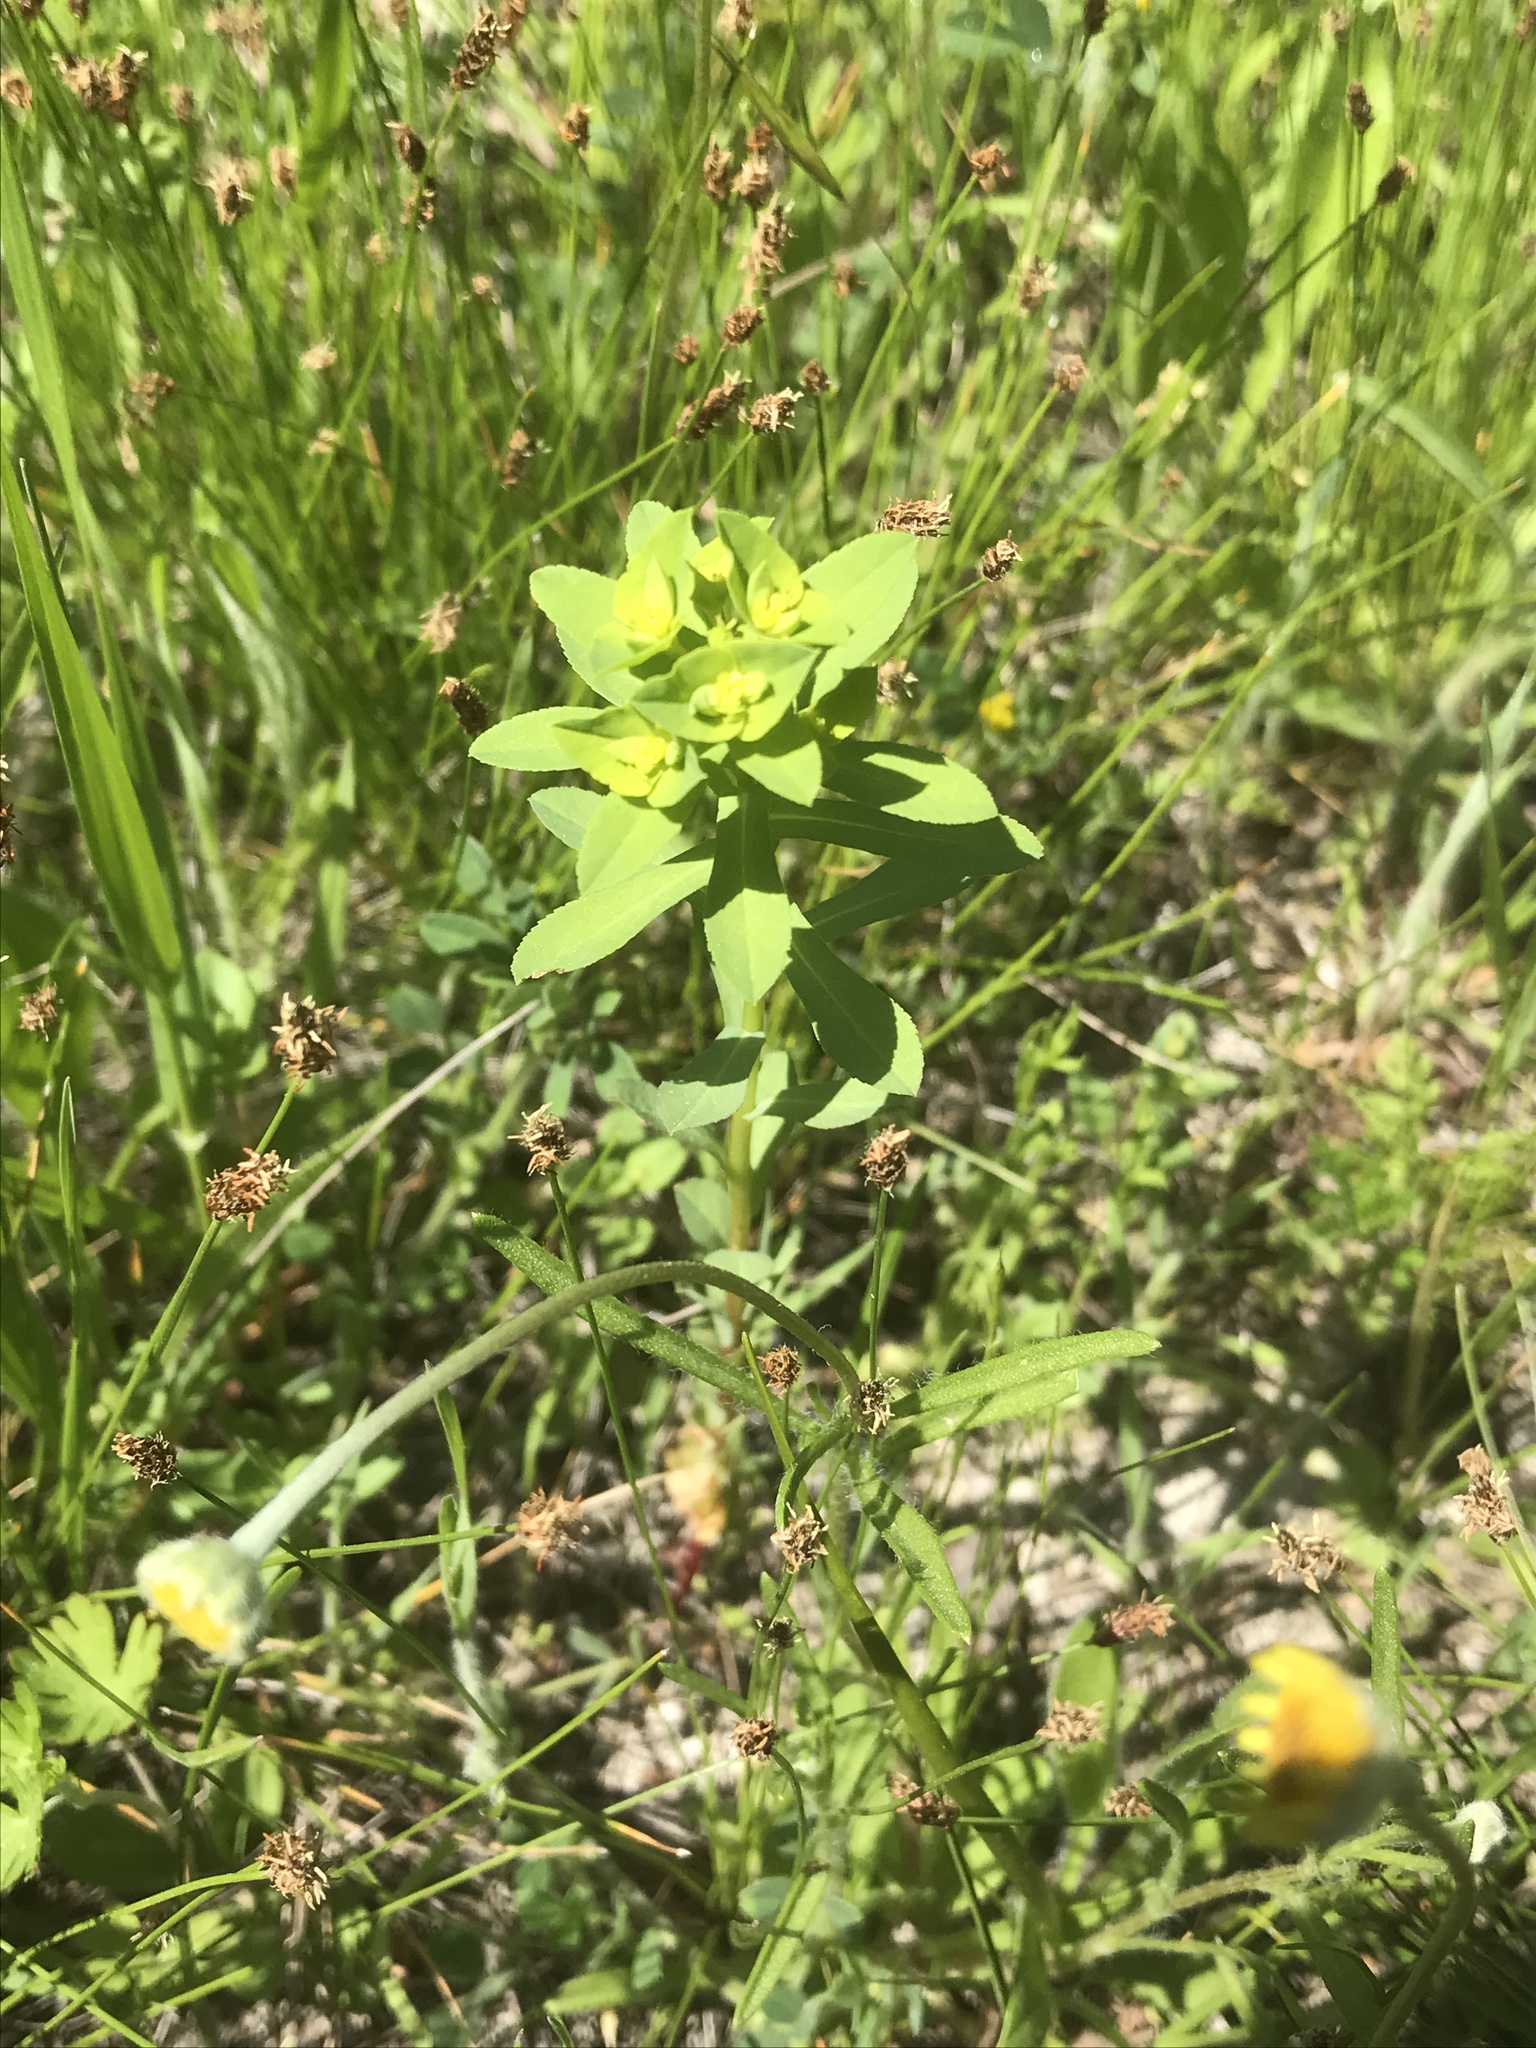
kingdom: Plantae
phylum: Tracheophyta
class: Magnoliopsida
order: Malpighiales
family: Euphorbiaceae
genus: Euphorbia
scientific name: Euphorbia spathulata
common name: Blunt spurge
